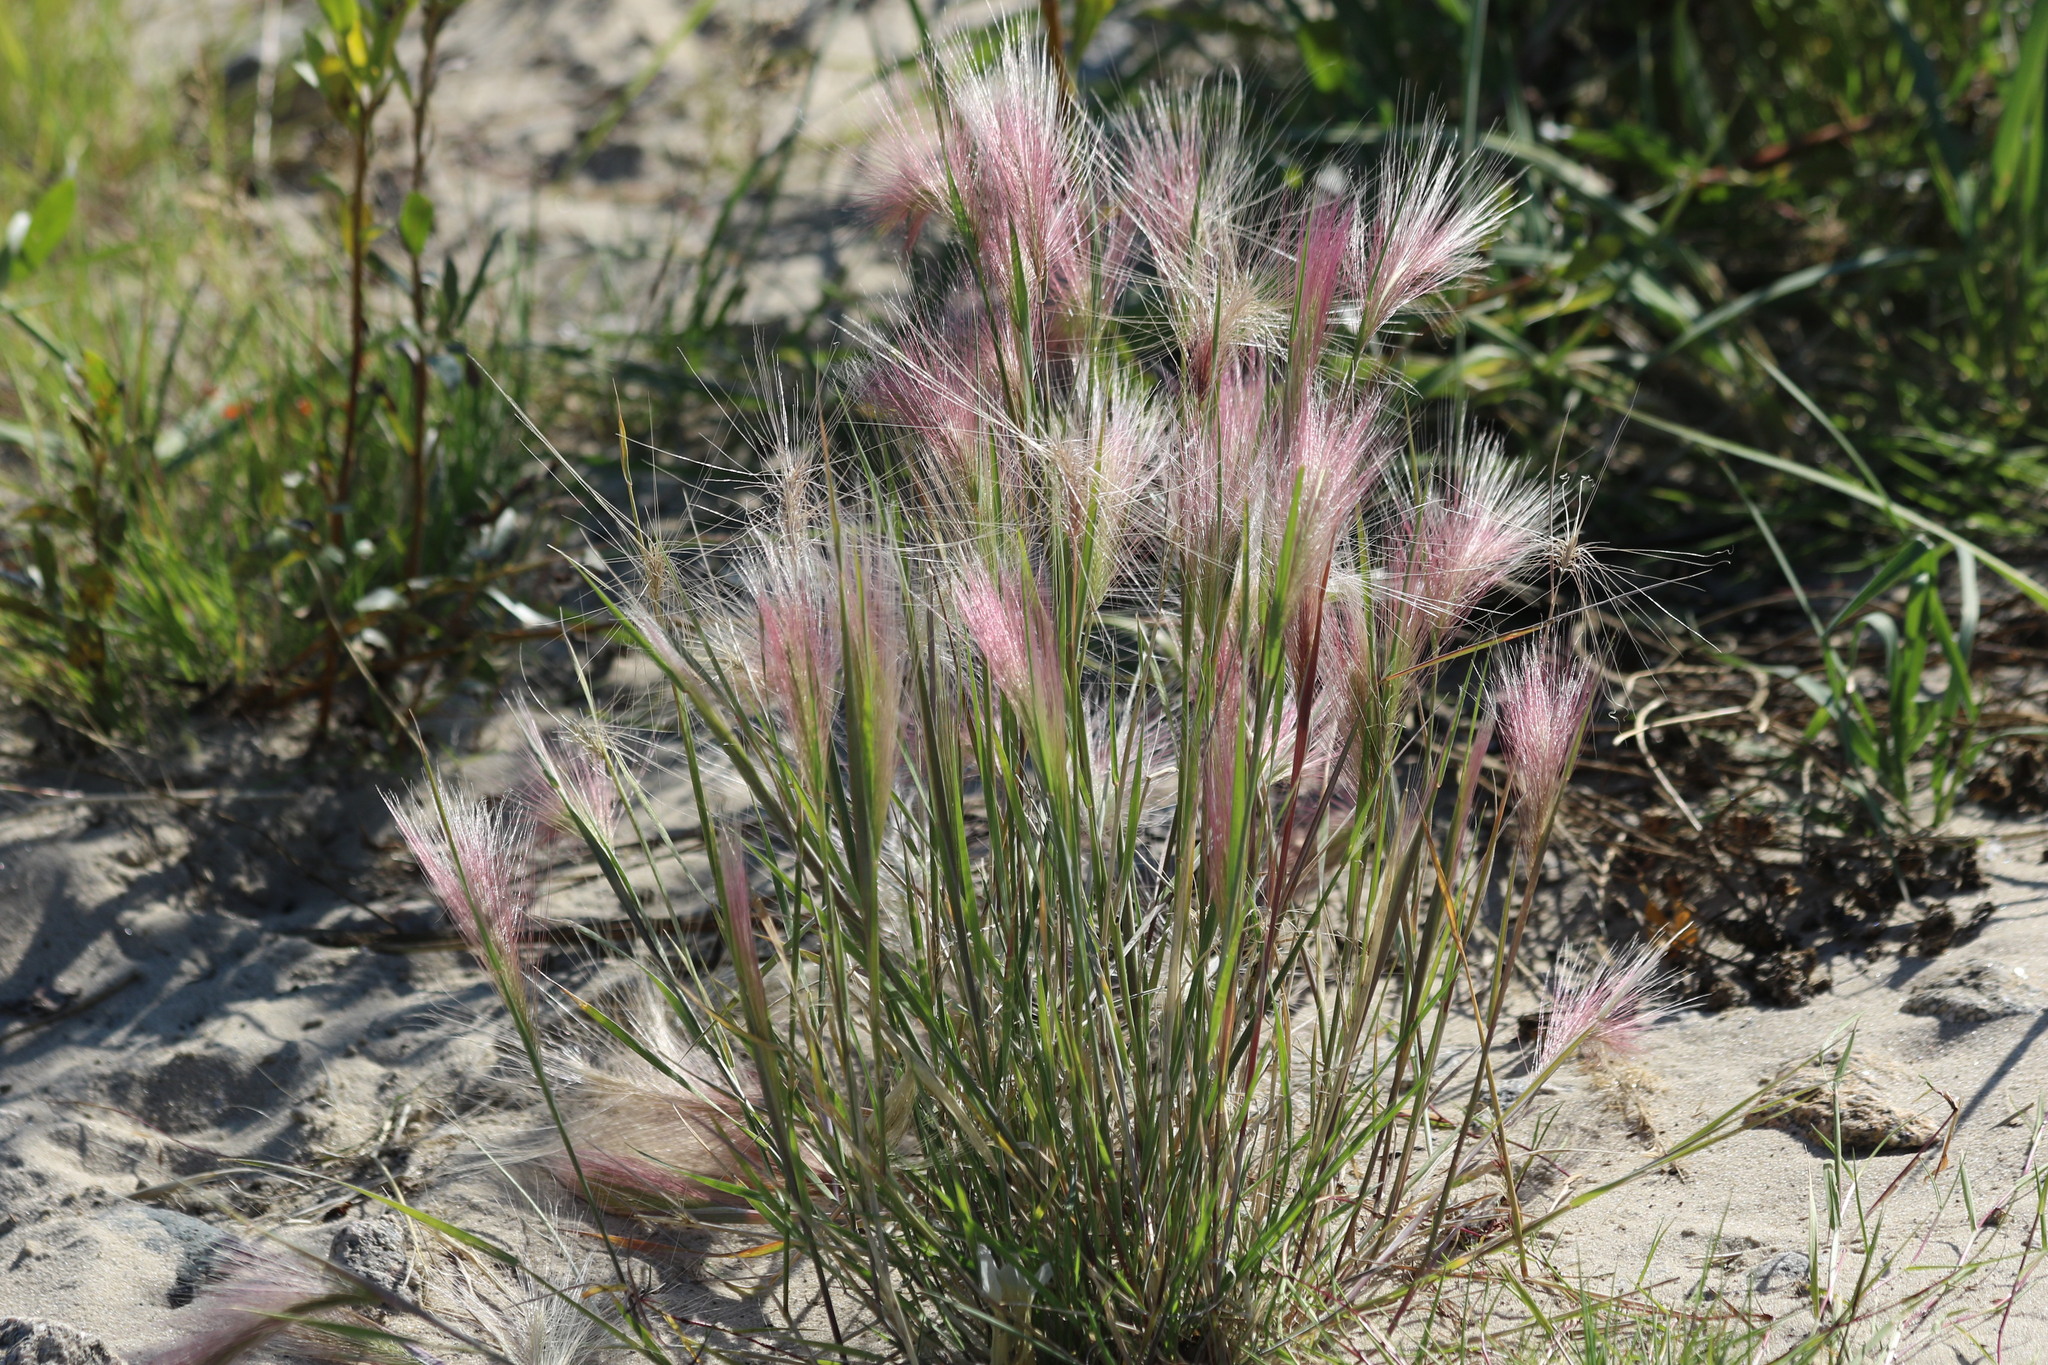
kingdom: Plantae
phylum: Tracheophyta
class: Liliopsida
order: Poales
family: Poaceae
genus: Hordeum
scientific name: Hordeum jubatum
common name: Foxtail barley
